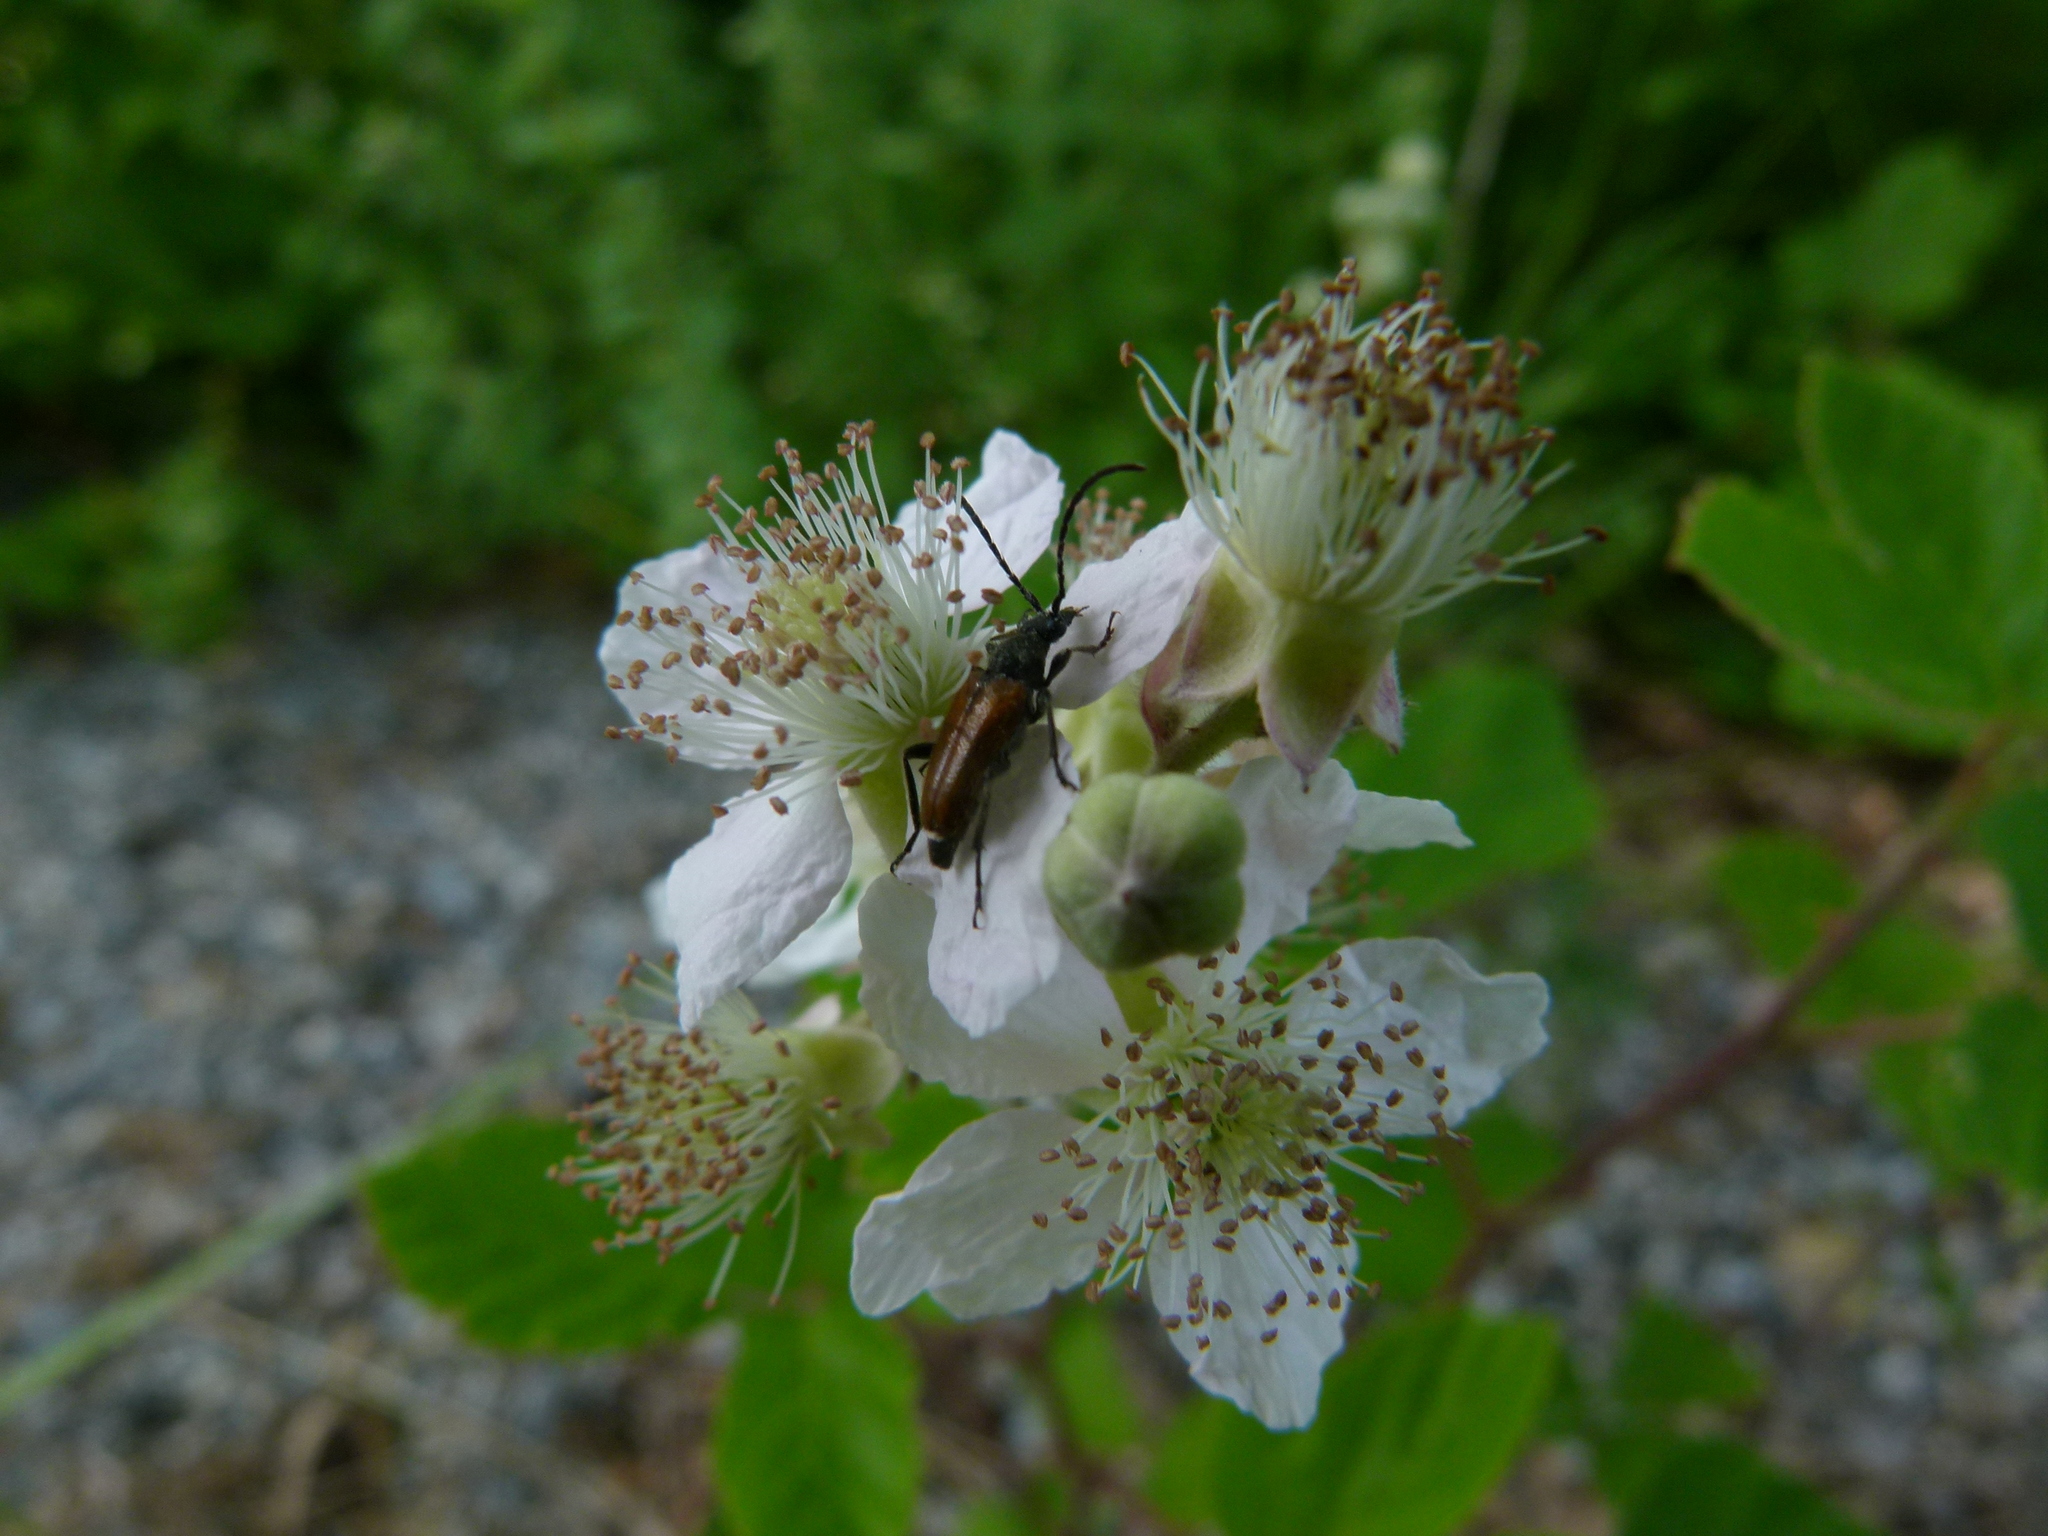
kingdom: Animalia
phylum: Arthropoda
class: Insecta
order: Coleoptera
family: Cerambycidae
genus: Pseudovadonia
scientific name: Pseudovadonia livida
